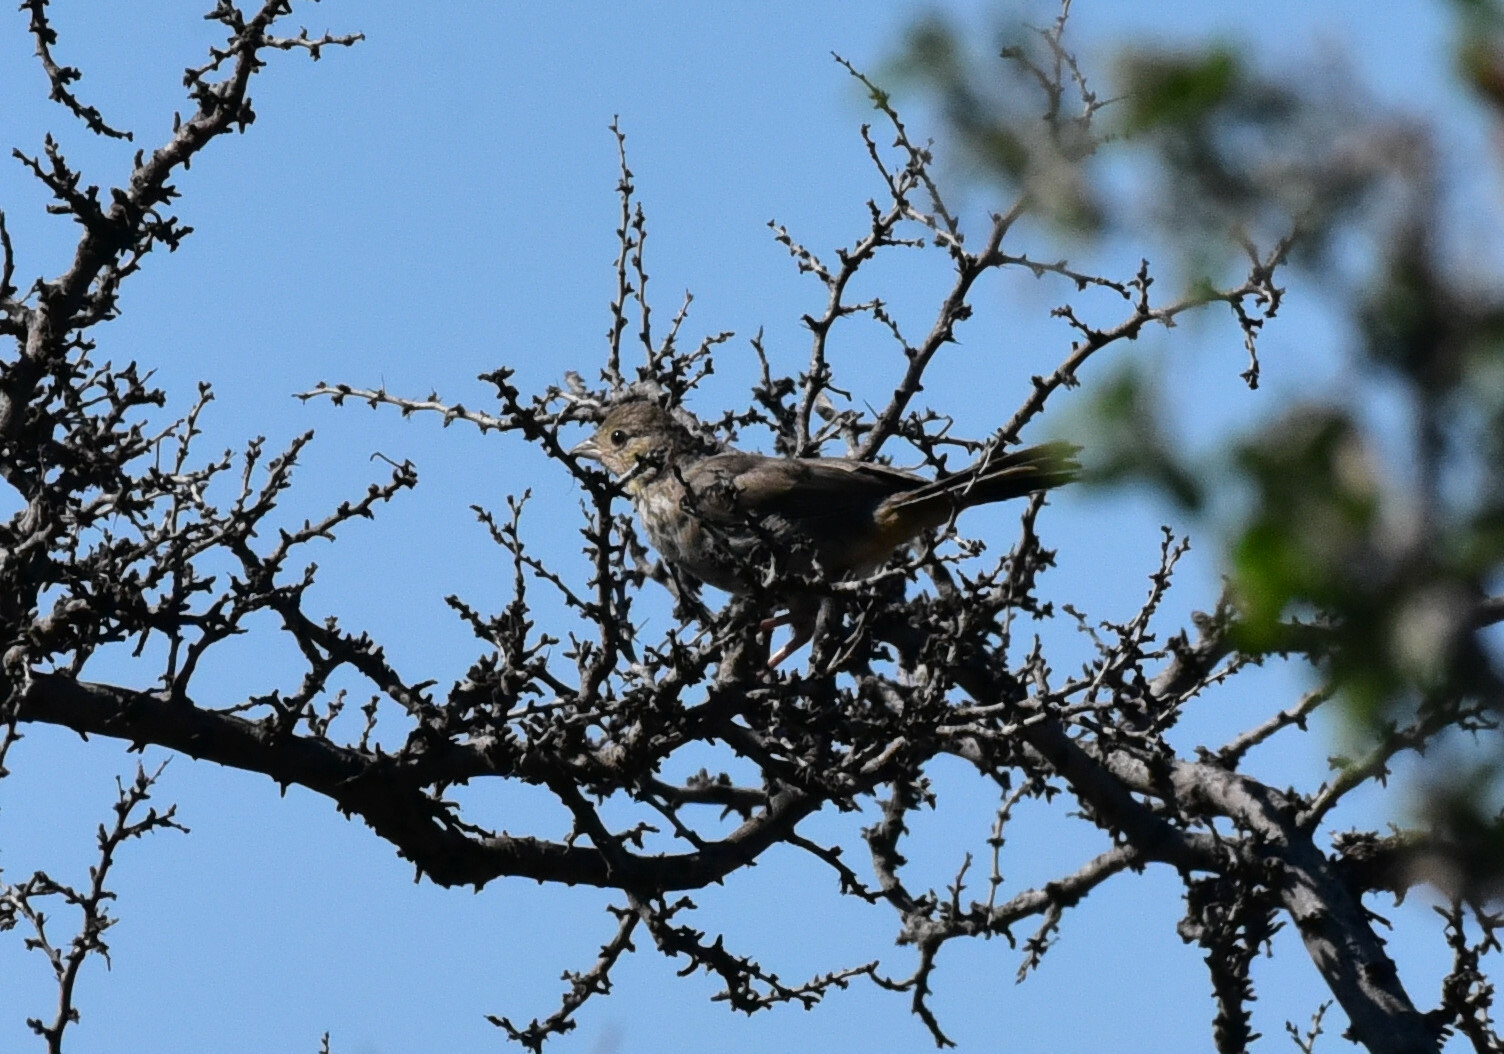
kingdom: Animalia
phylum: Chordata
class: Aves
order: Passeriformes
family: Passerellidae
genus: Melozone
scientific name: Melozone fusca
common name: Canyon towhee
